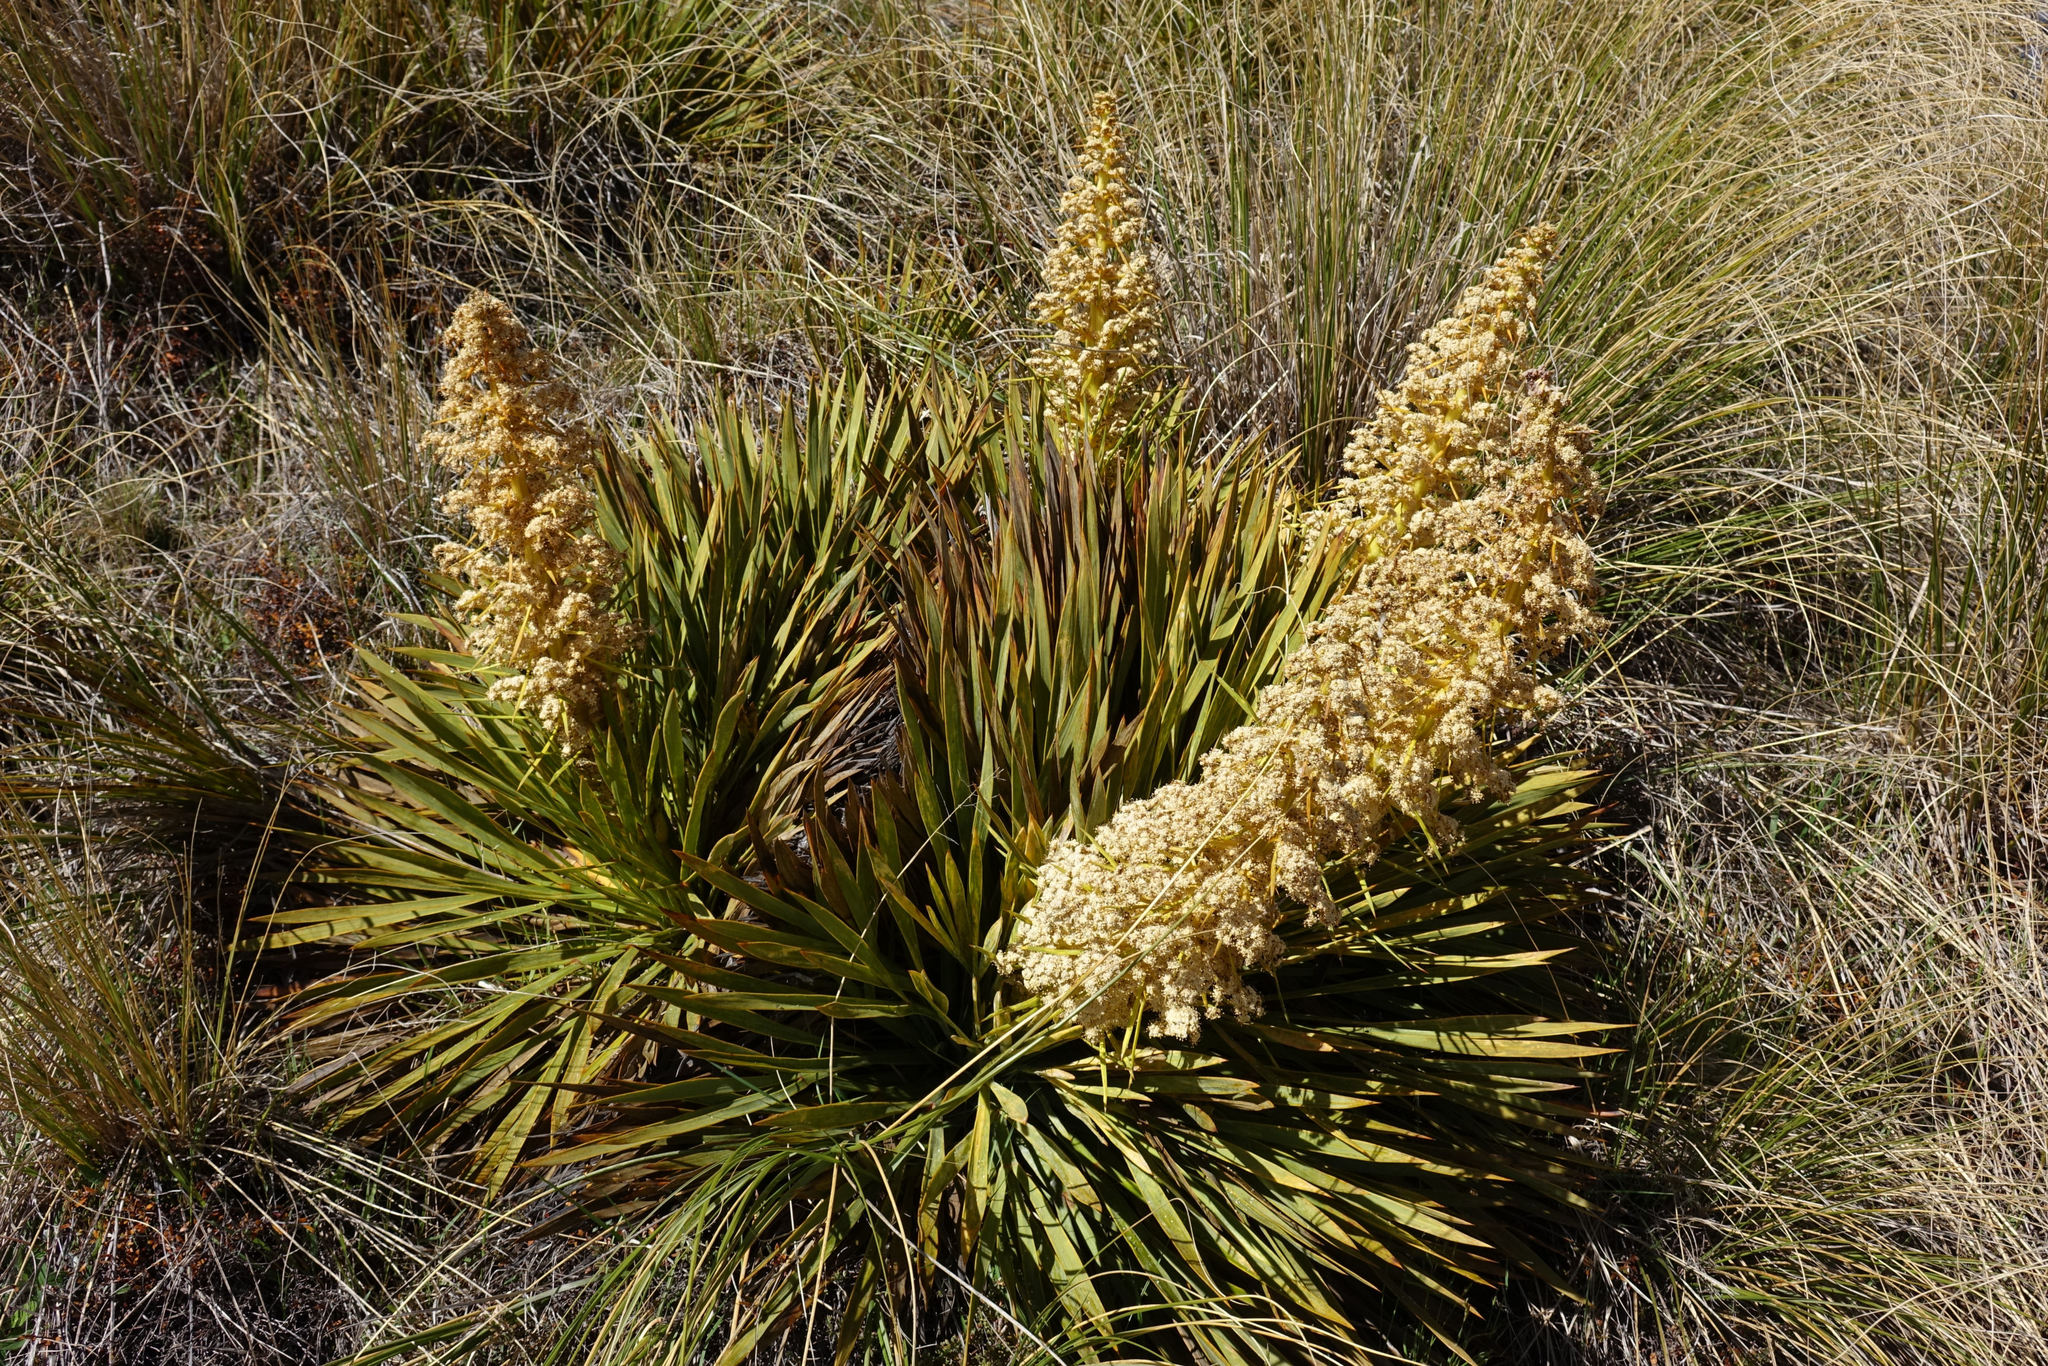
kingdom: Plantae
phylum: Tracheophyta
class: Magnoliopsida
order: Apiales
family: Apiaceae
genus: Aciphylla
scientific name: Aciphylla aurea
